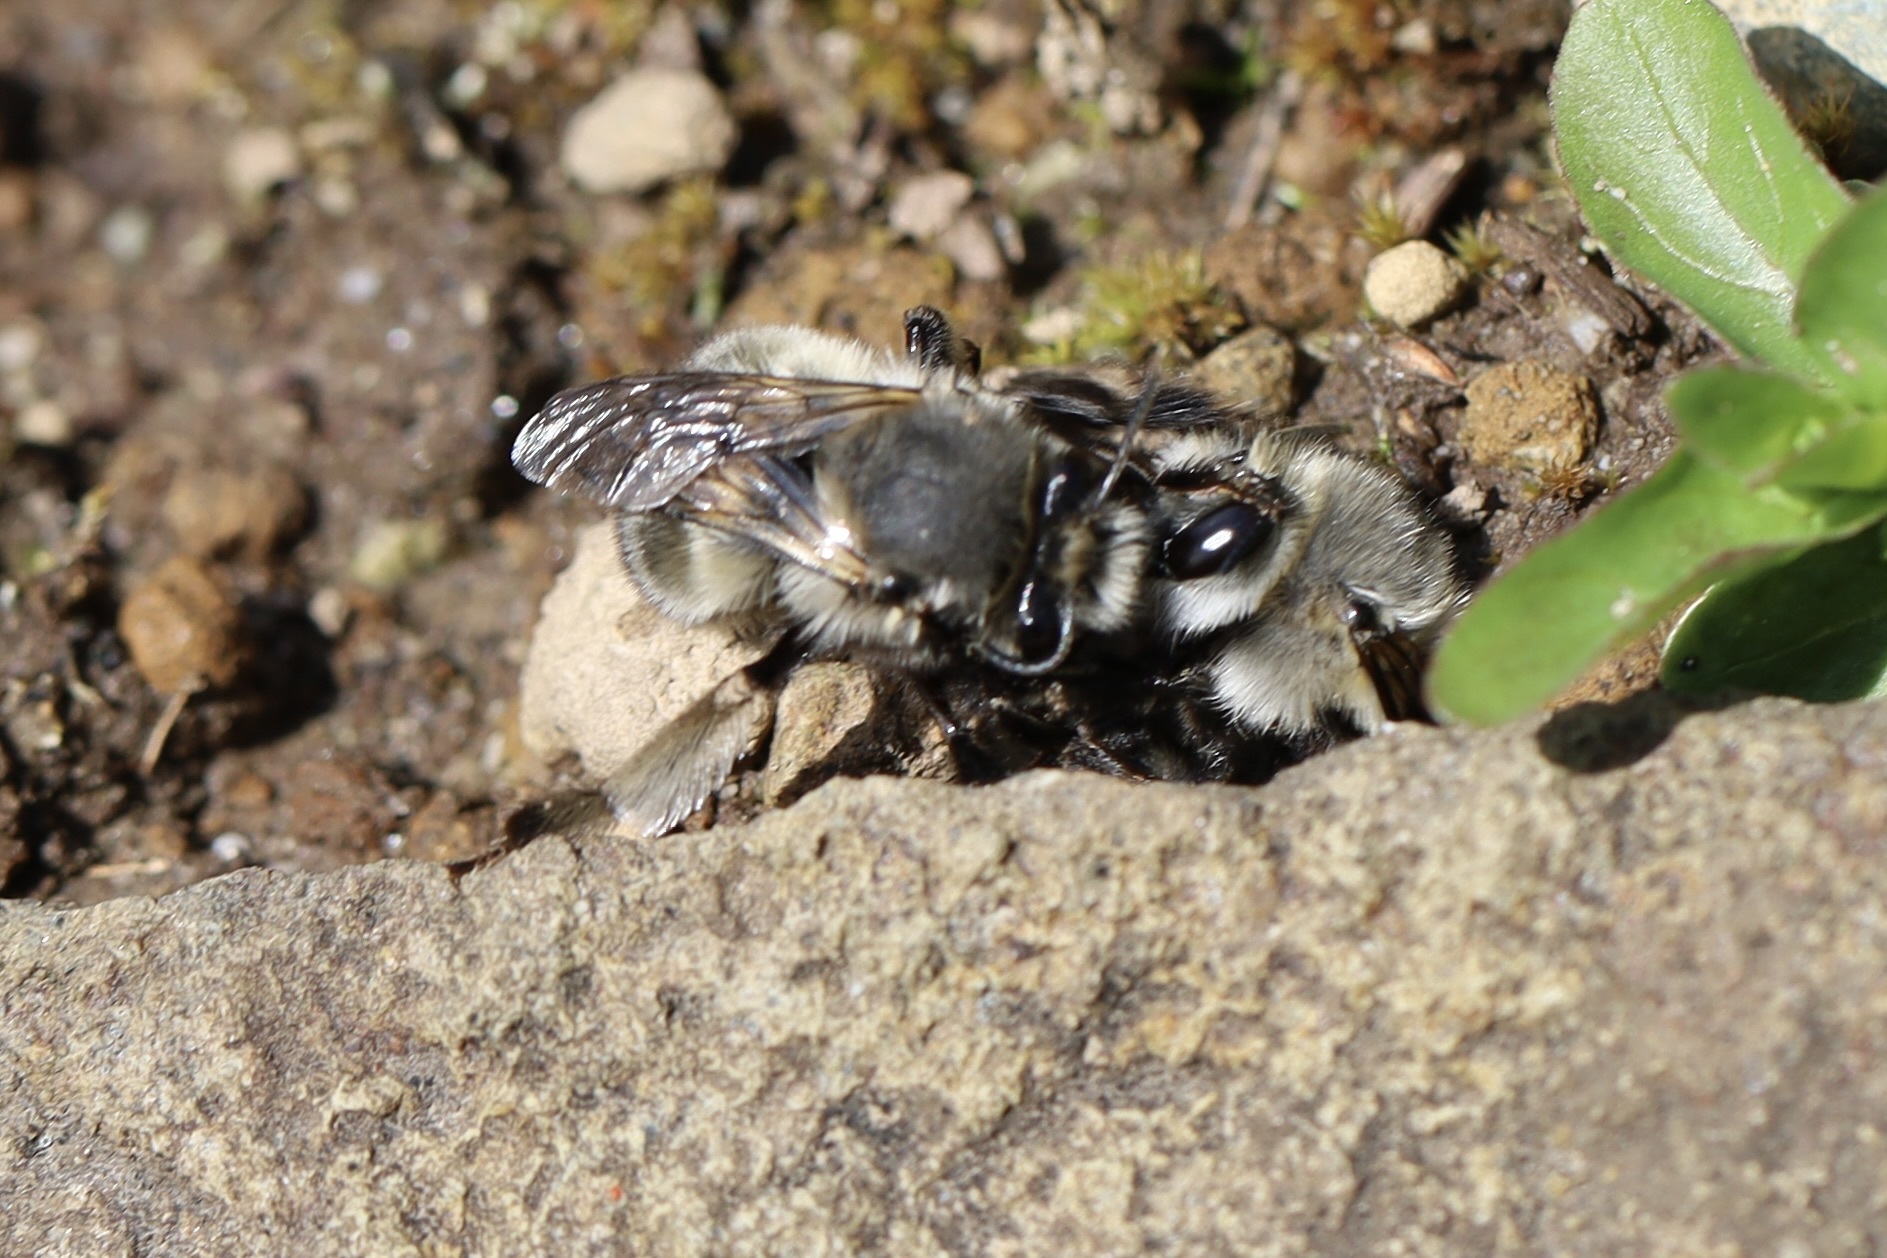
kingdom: Animalia
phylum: Arthropoda
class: Insecta
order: Hymenoptera
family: Apidae
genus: Anthophora
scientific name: Anthophora pacifica
